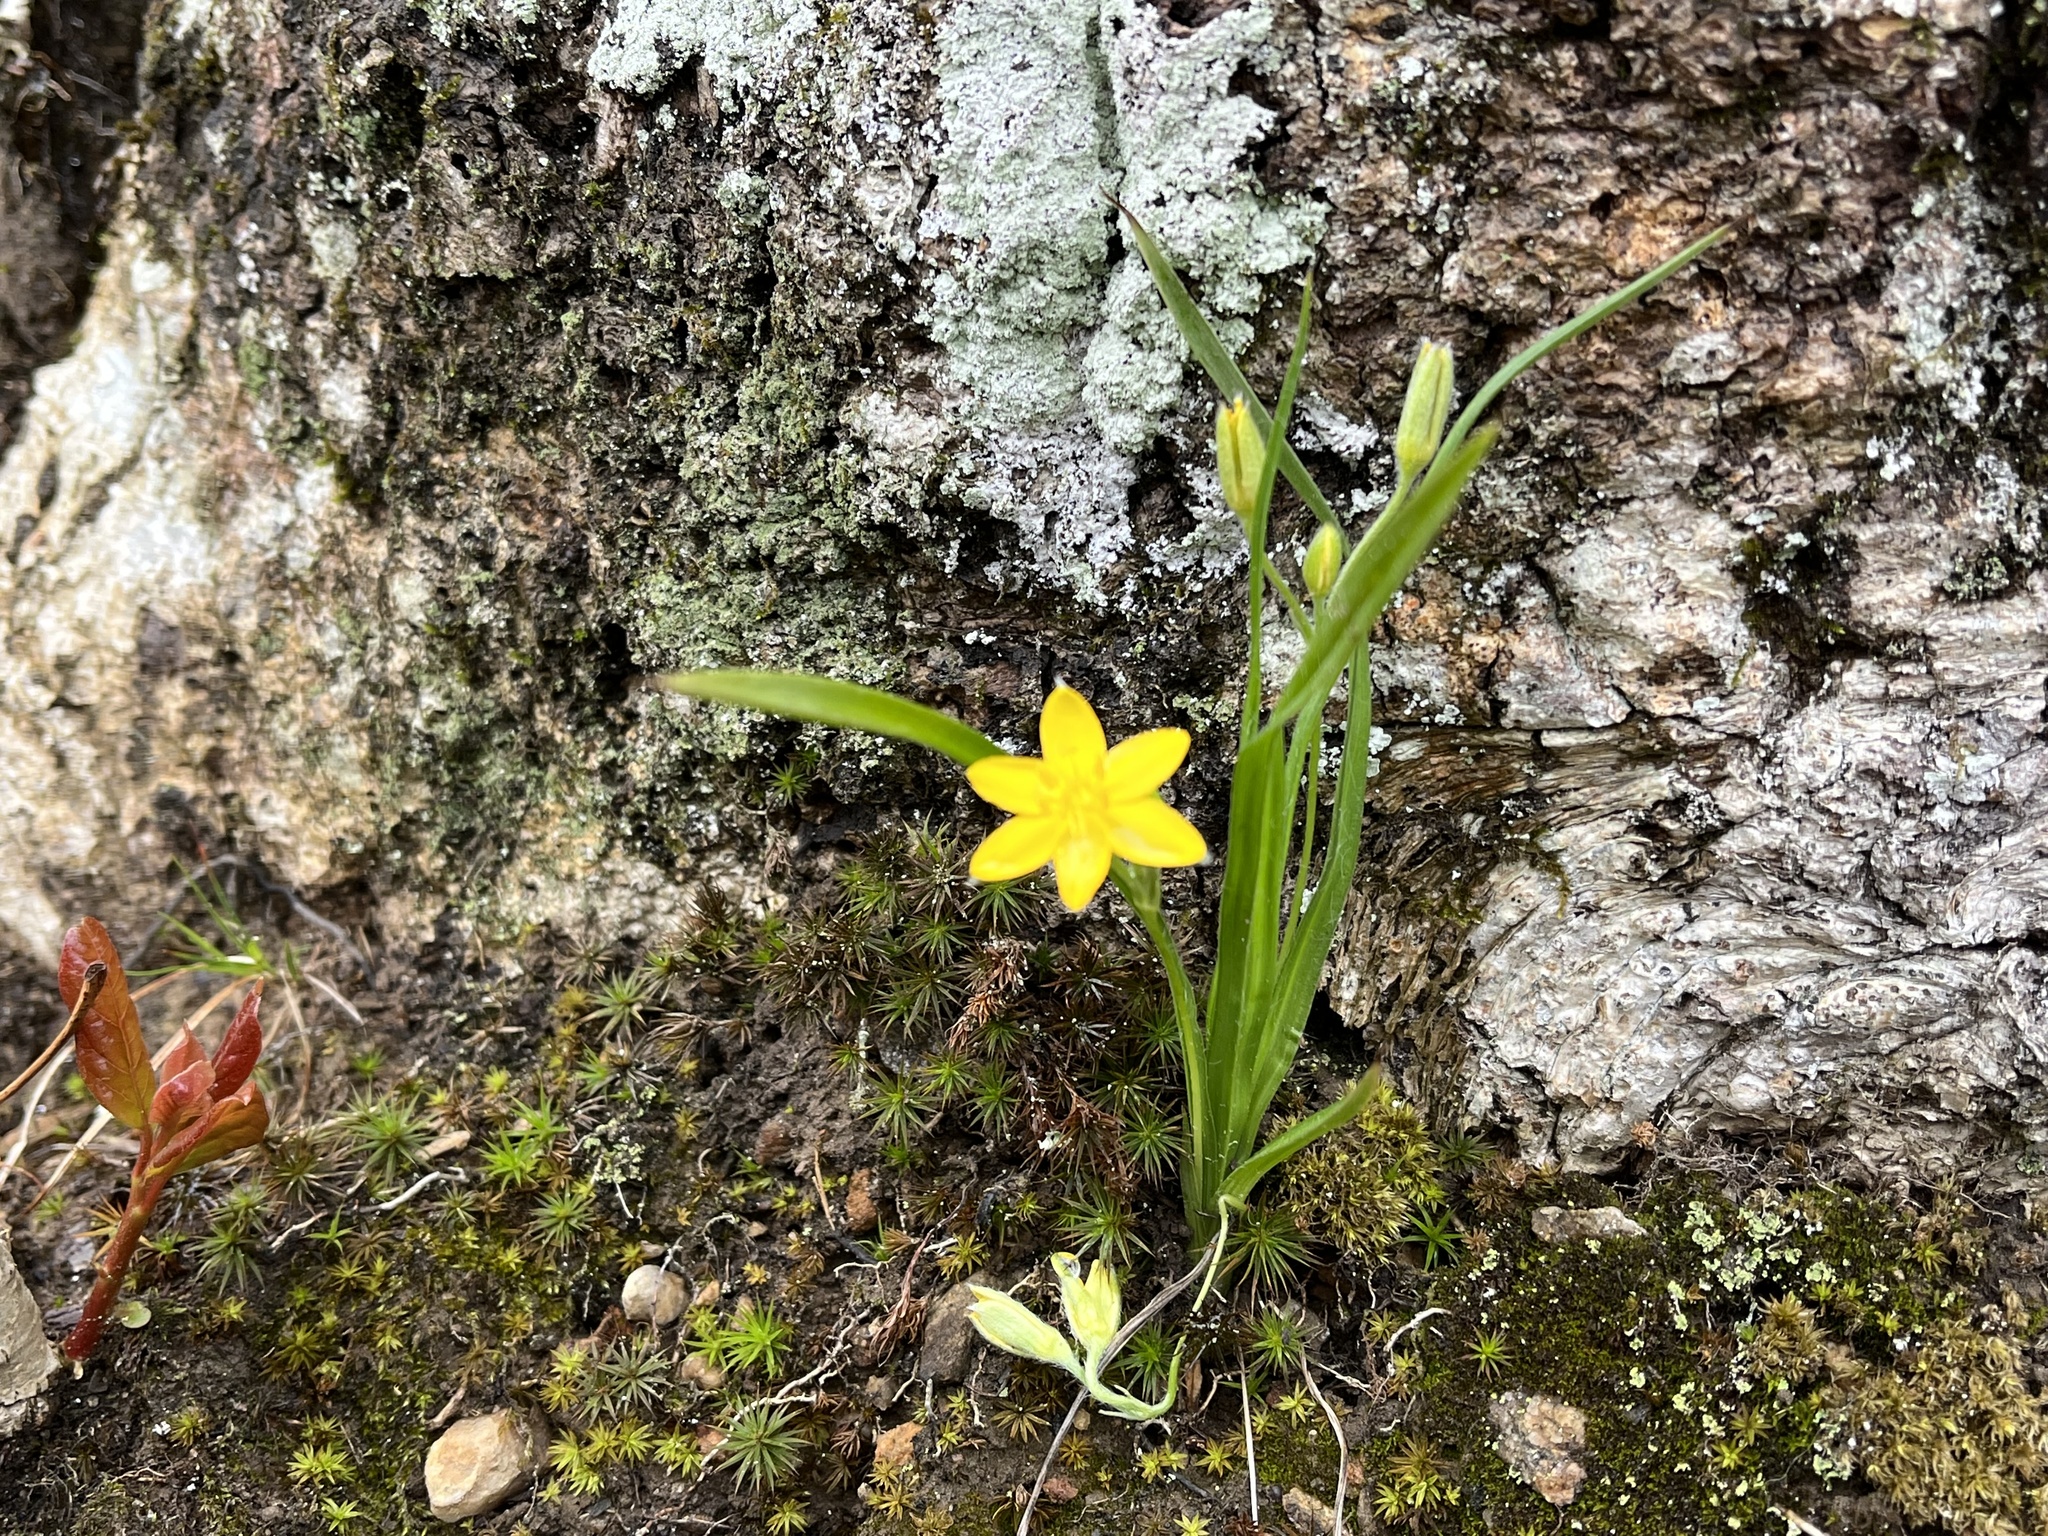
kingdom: Plantae
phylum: Tracheophyta
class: Liliopsida
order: Asparagales
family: Hypoxidaceae
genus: Hypoxis
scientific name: Hypoxis hirsuta
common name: Common goldstar
